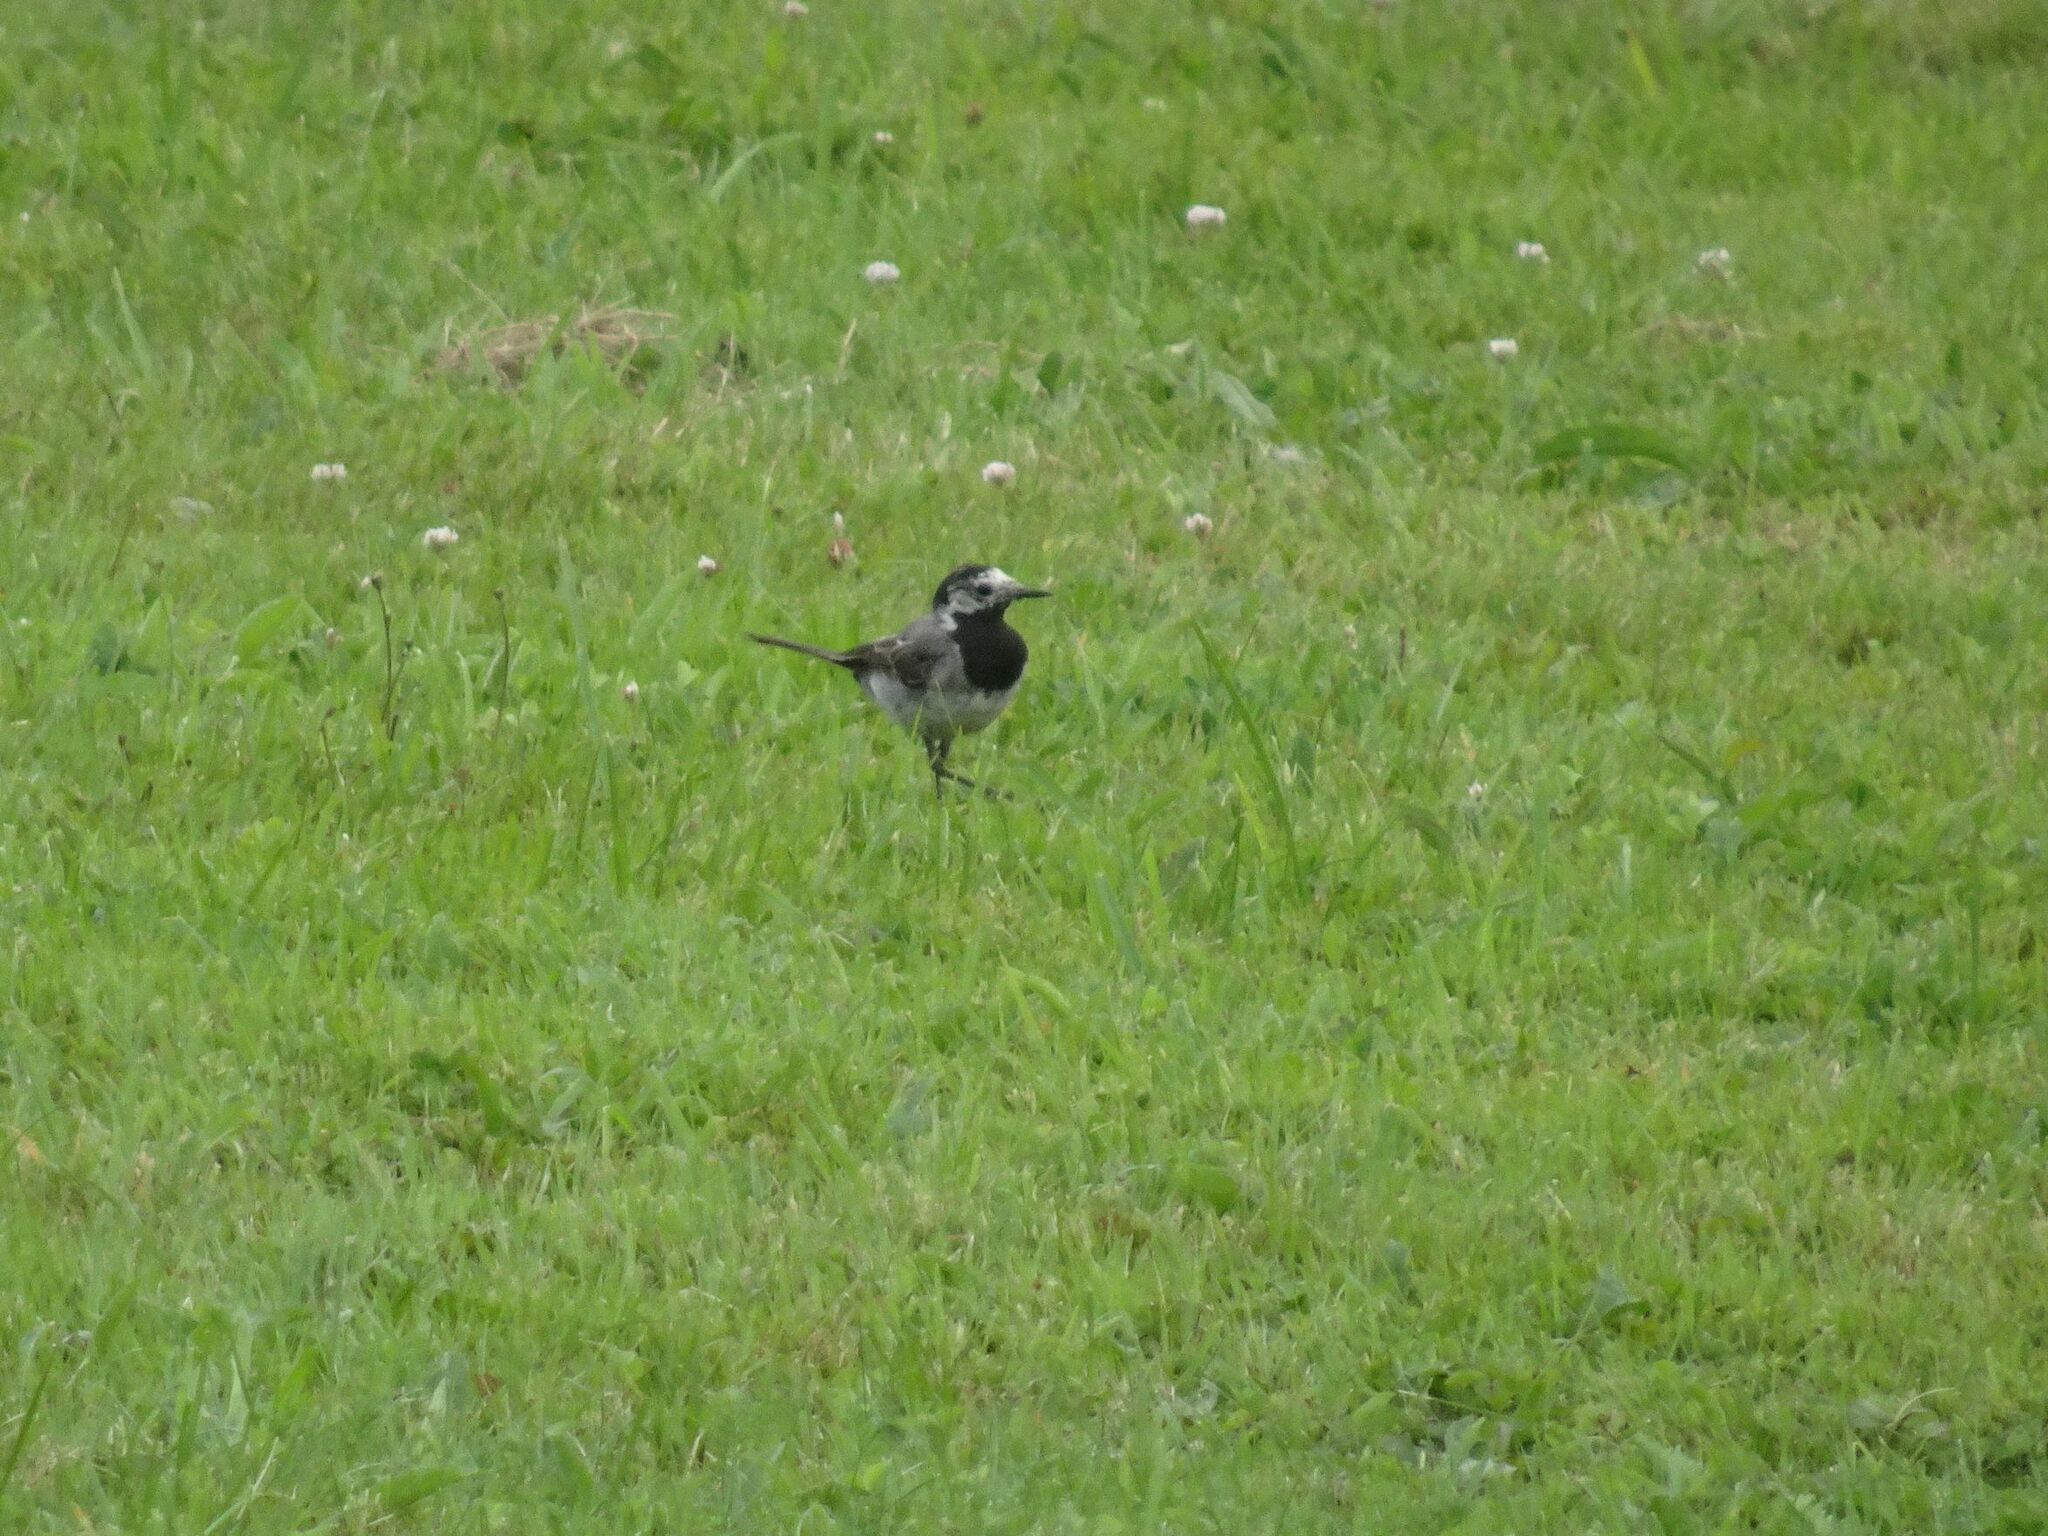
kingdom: Animalia
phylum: Chordata
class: Aves
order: Passeriformes
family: Motacillidae
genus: Motacilla
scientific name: Motacilla alba
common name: White wagtail
